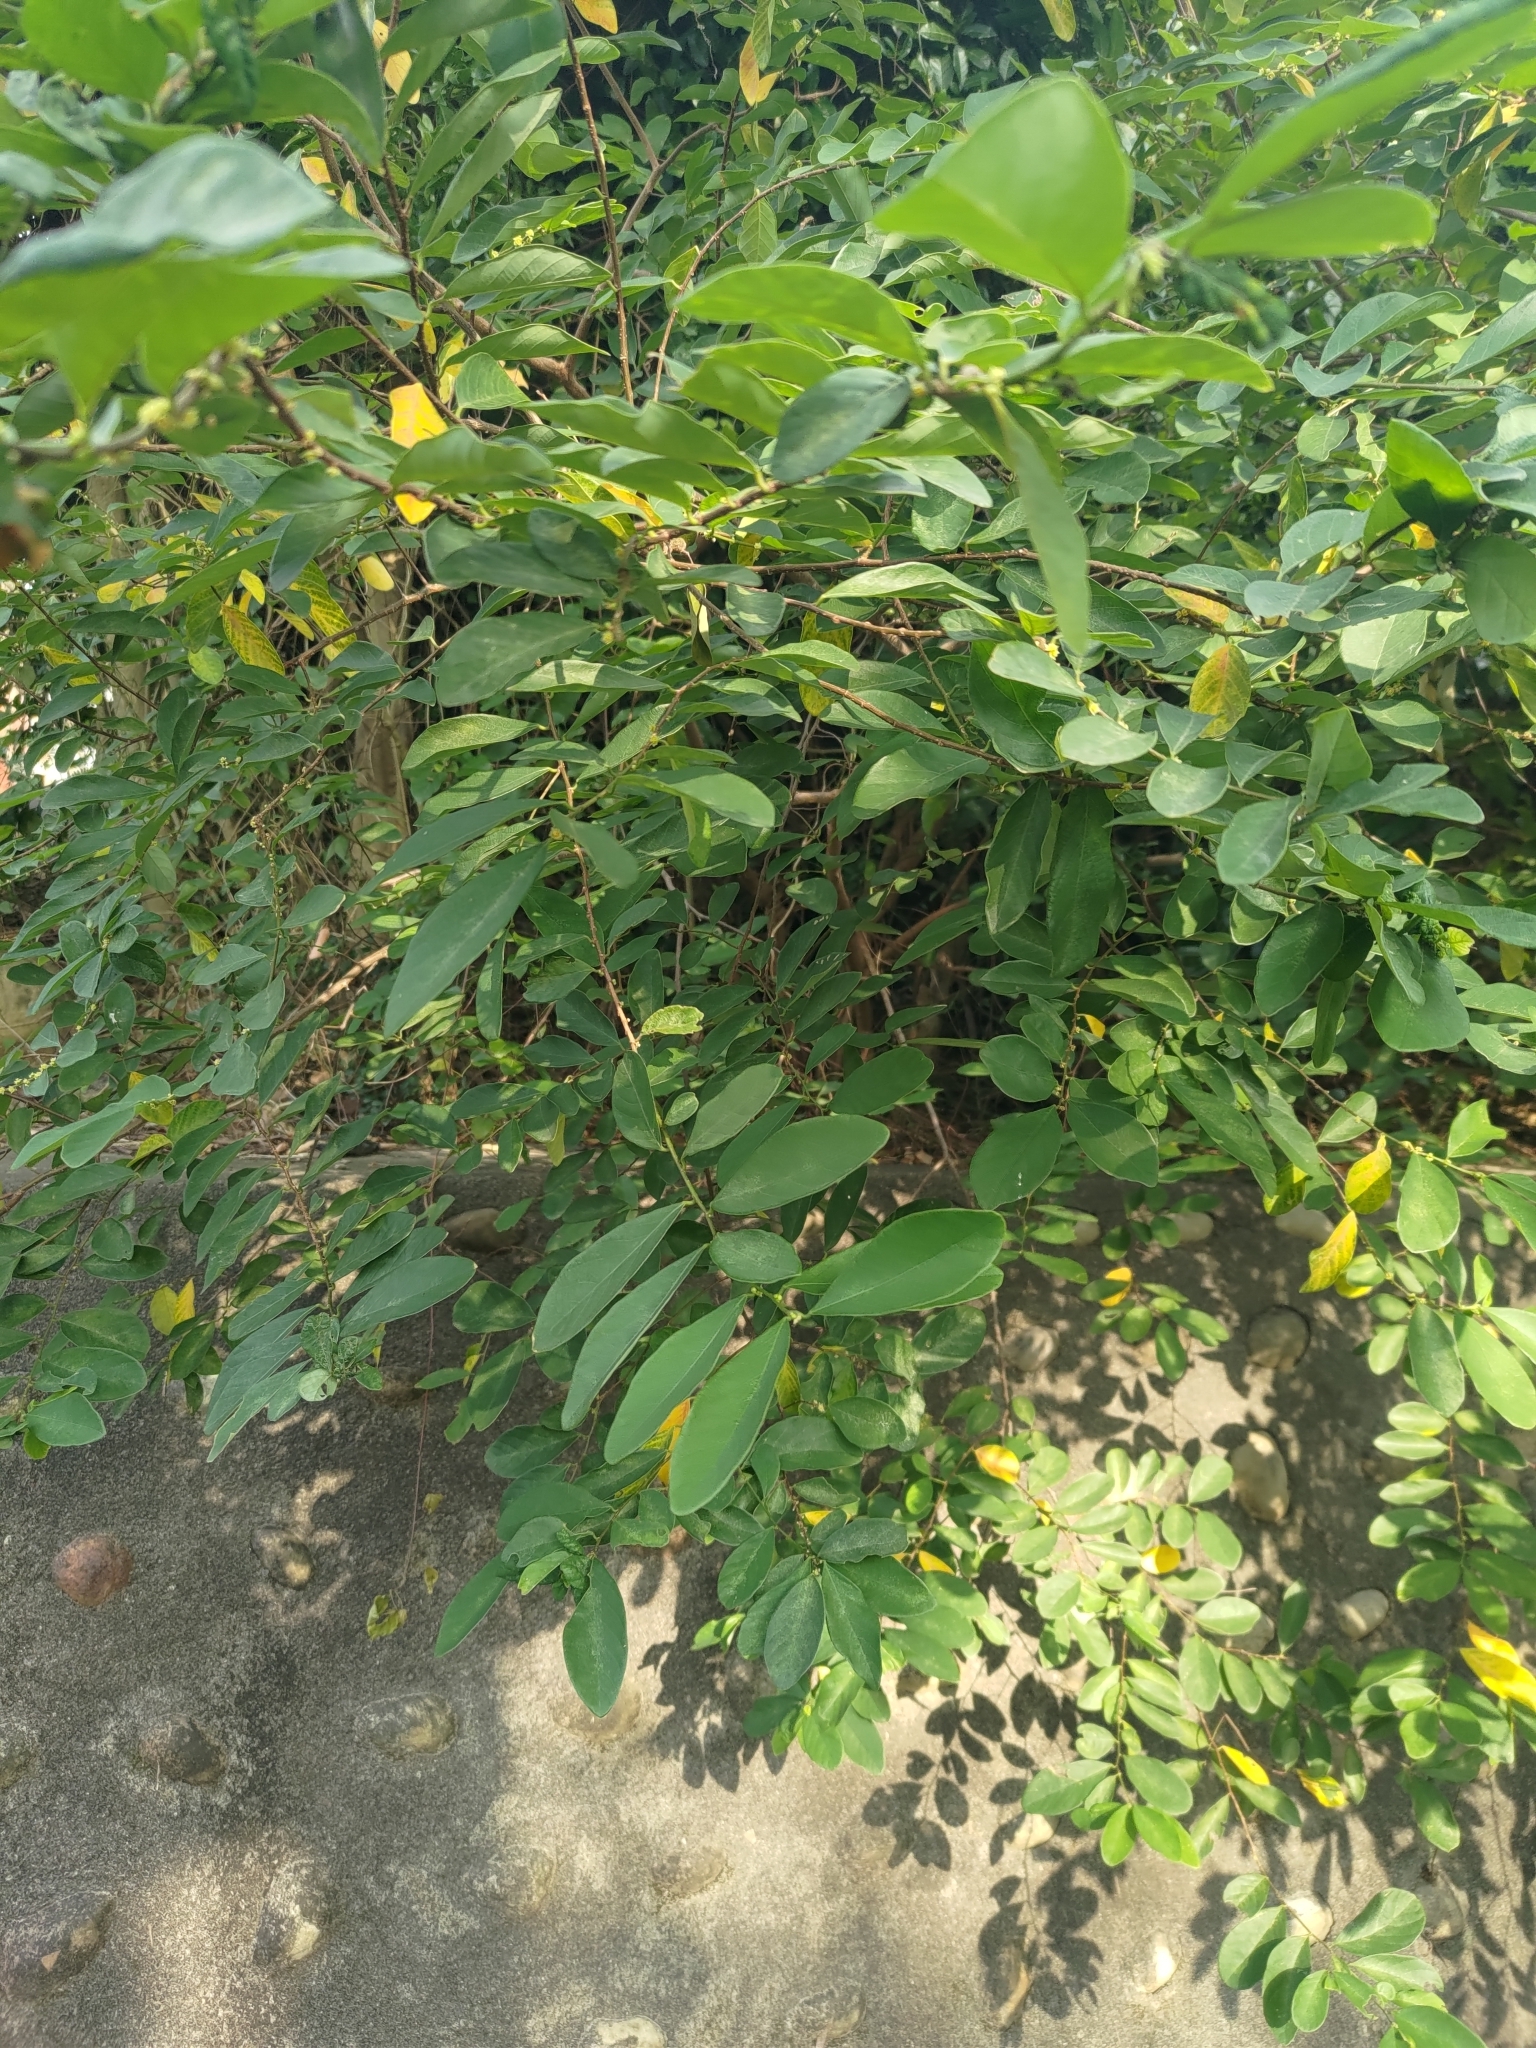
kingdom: Plantae
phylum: Tracheophyta
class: Magnoliopsida
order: Malpighiales
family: Phyllanthaceae
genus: Bridelia
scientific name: Bridelia tomentosa
